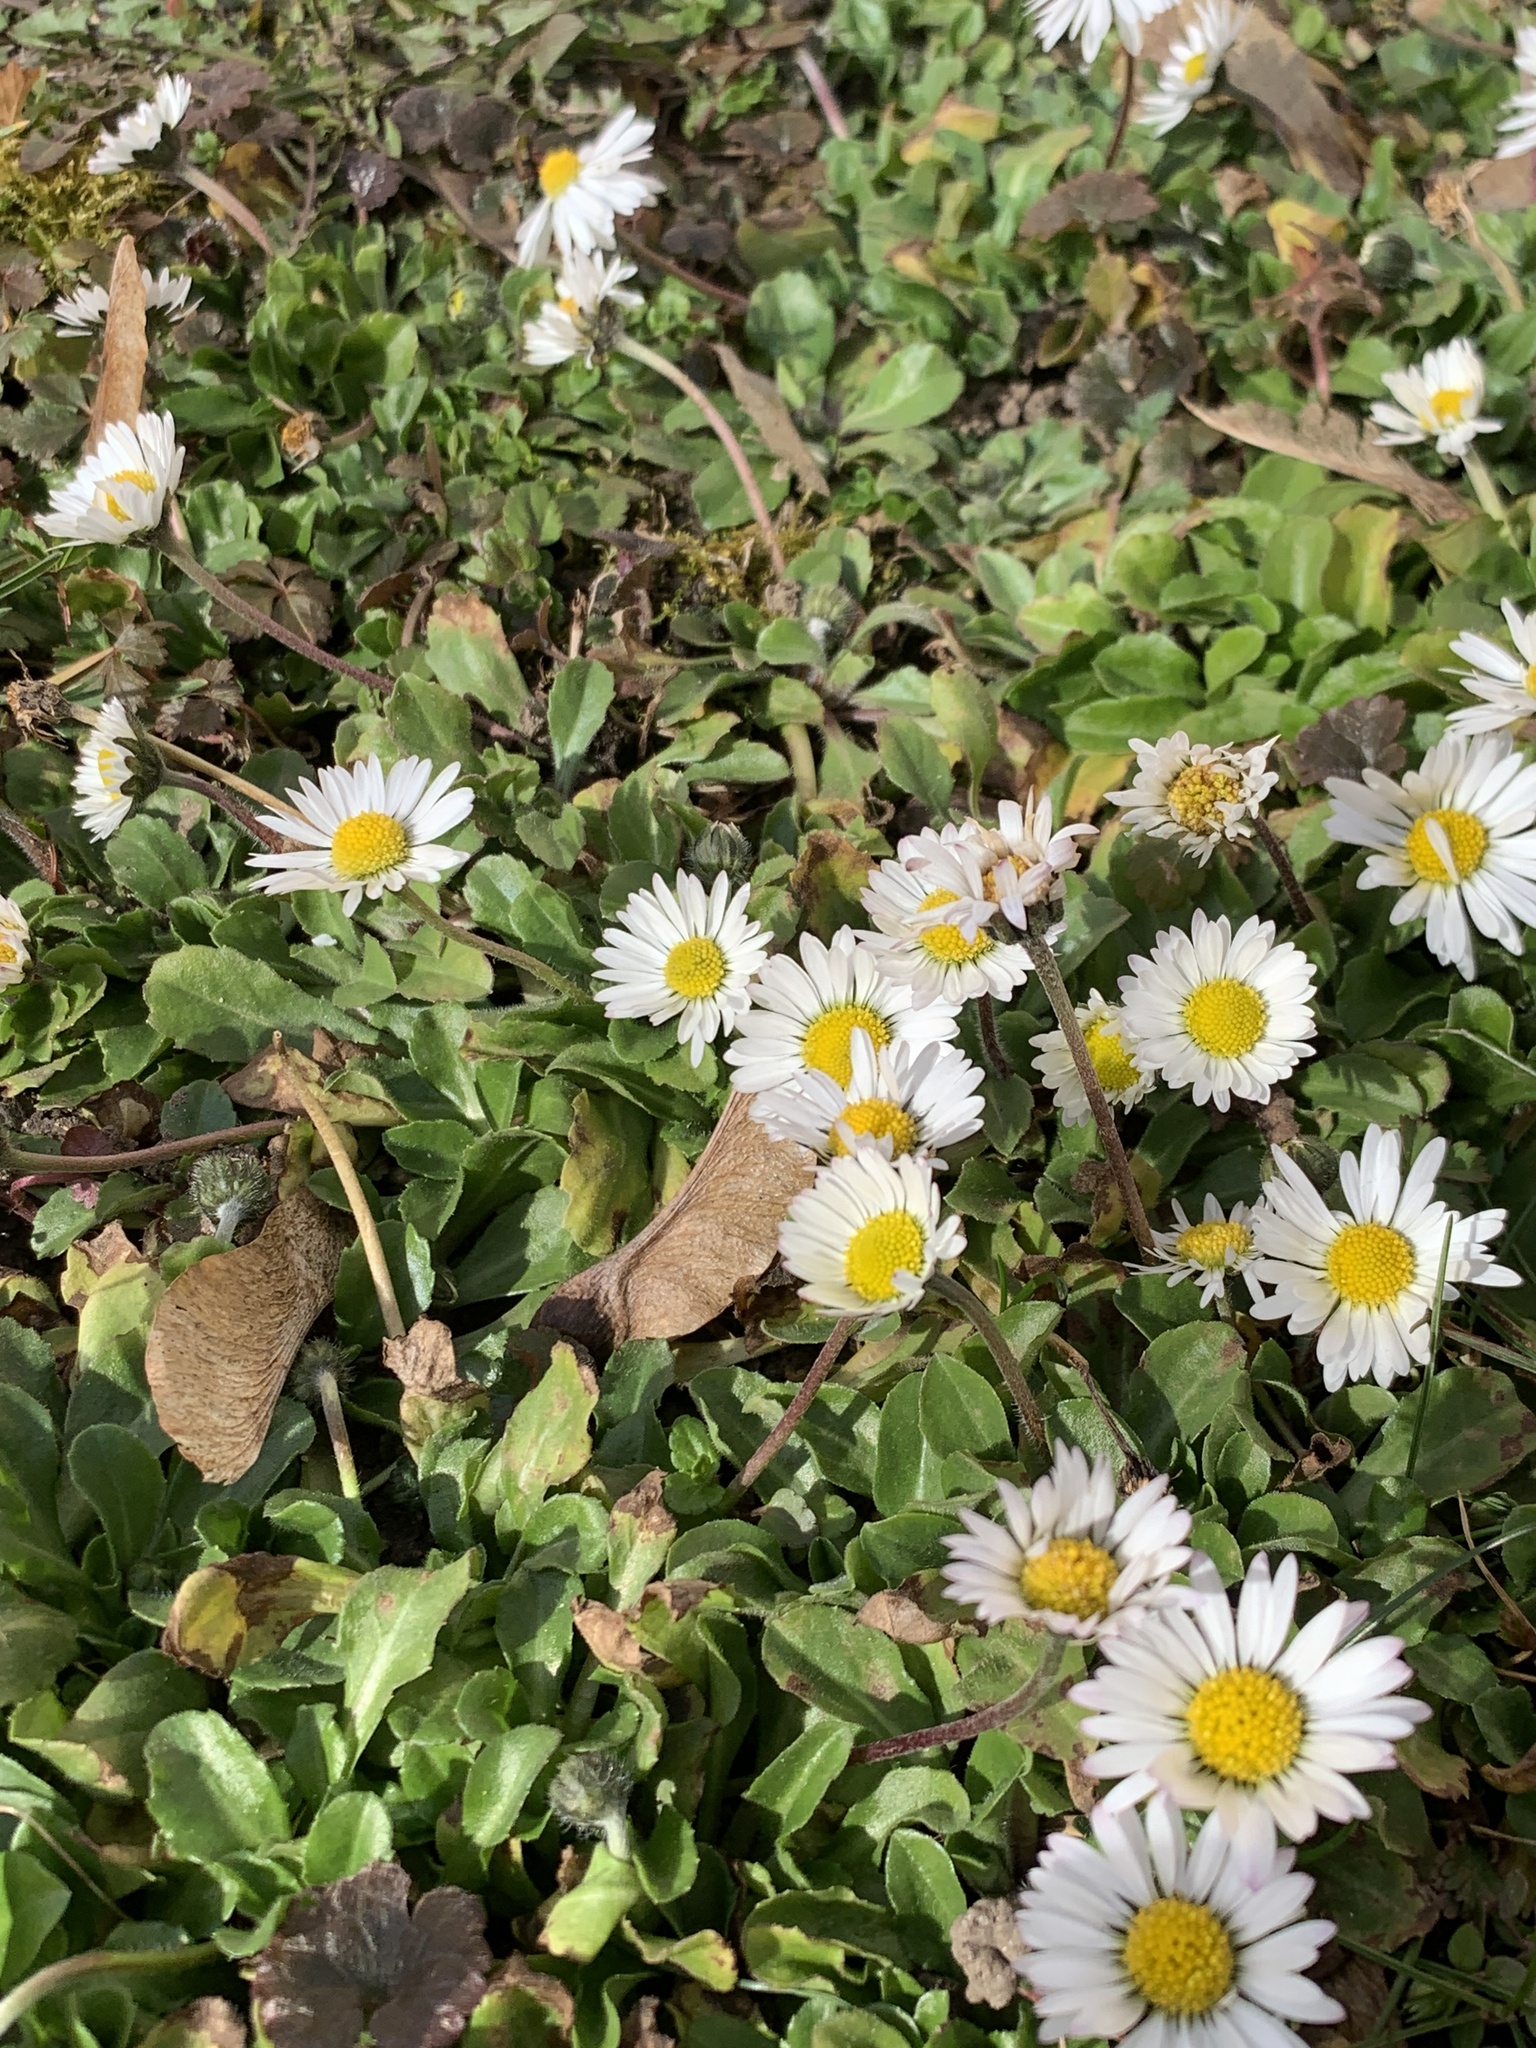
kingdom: Plantae
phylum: Tracheophyta
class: Magnoliopsida
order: Asterales
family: Asteraceae
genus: Bellis
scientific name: Bellis perennis
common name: Lawndaisy
